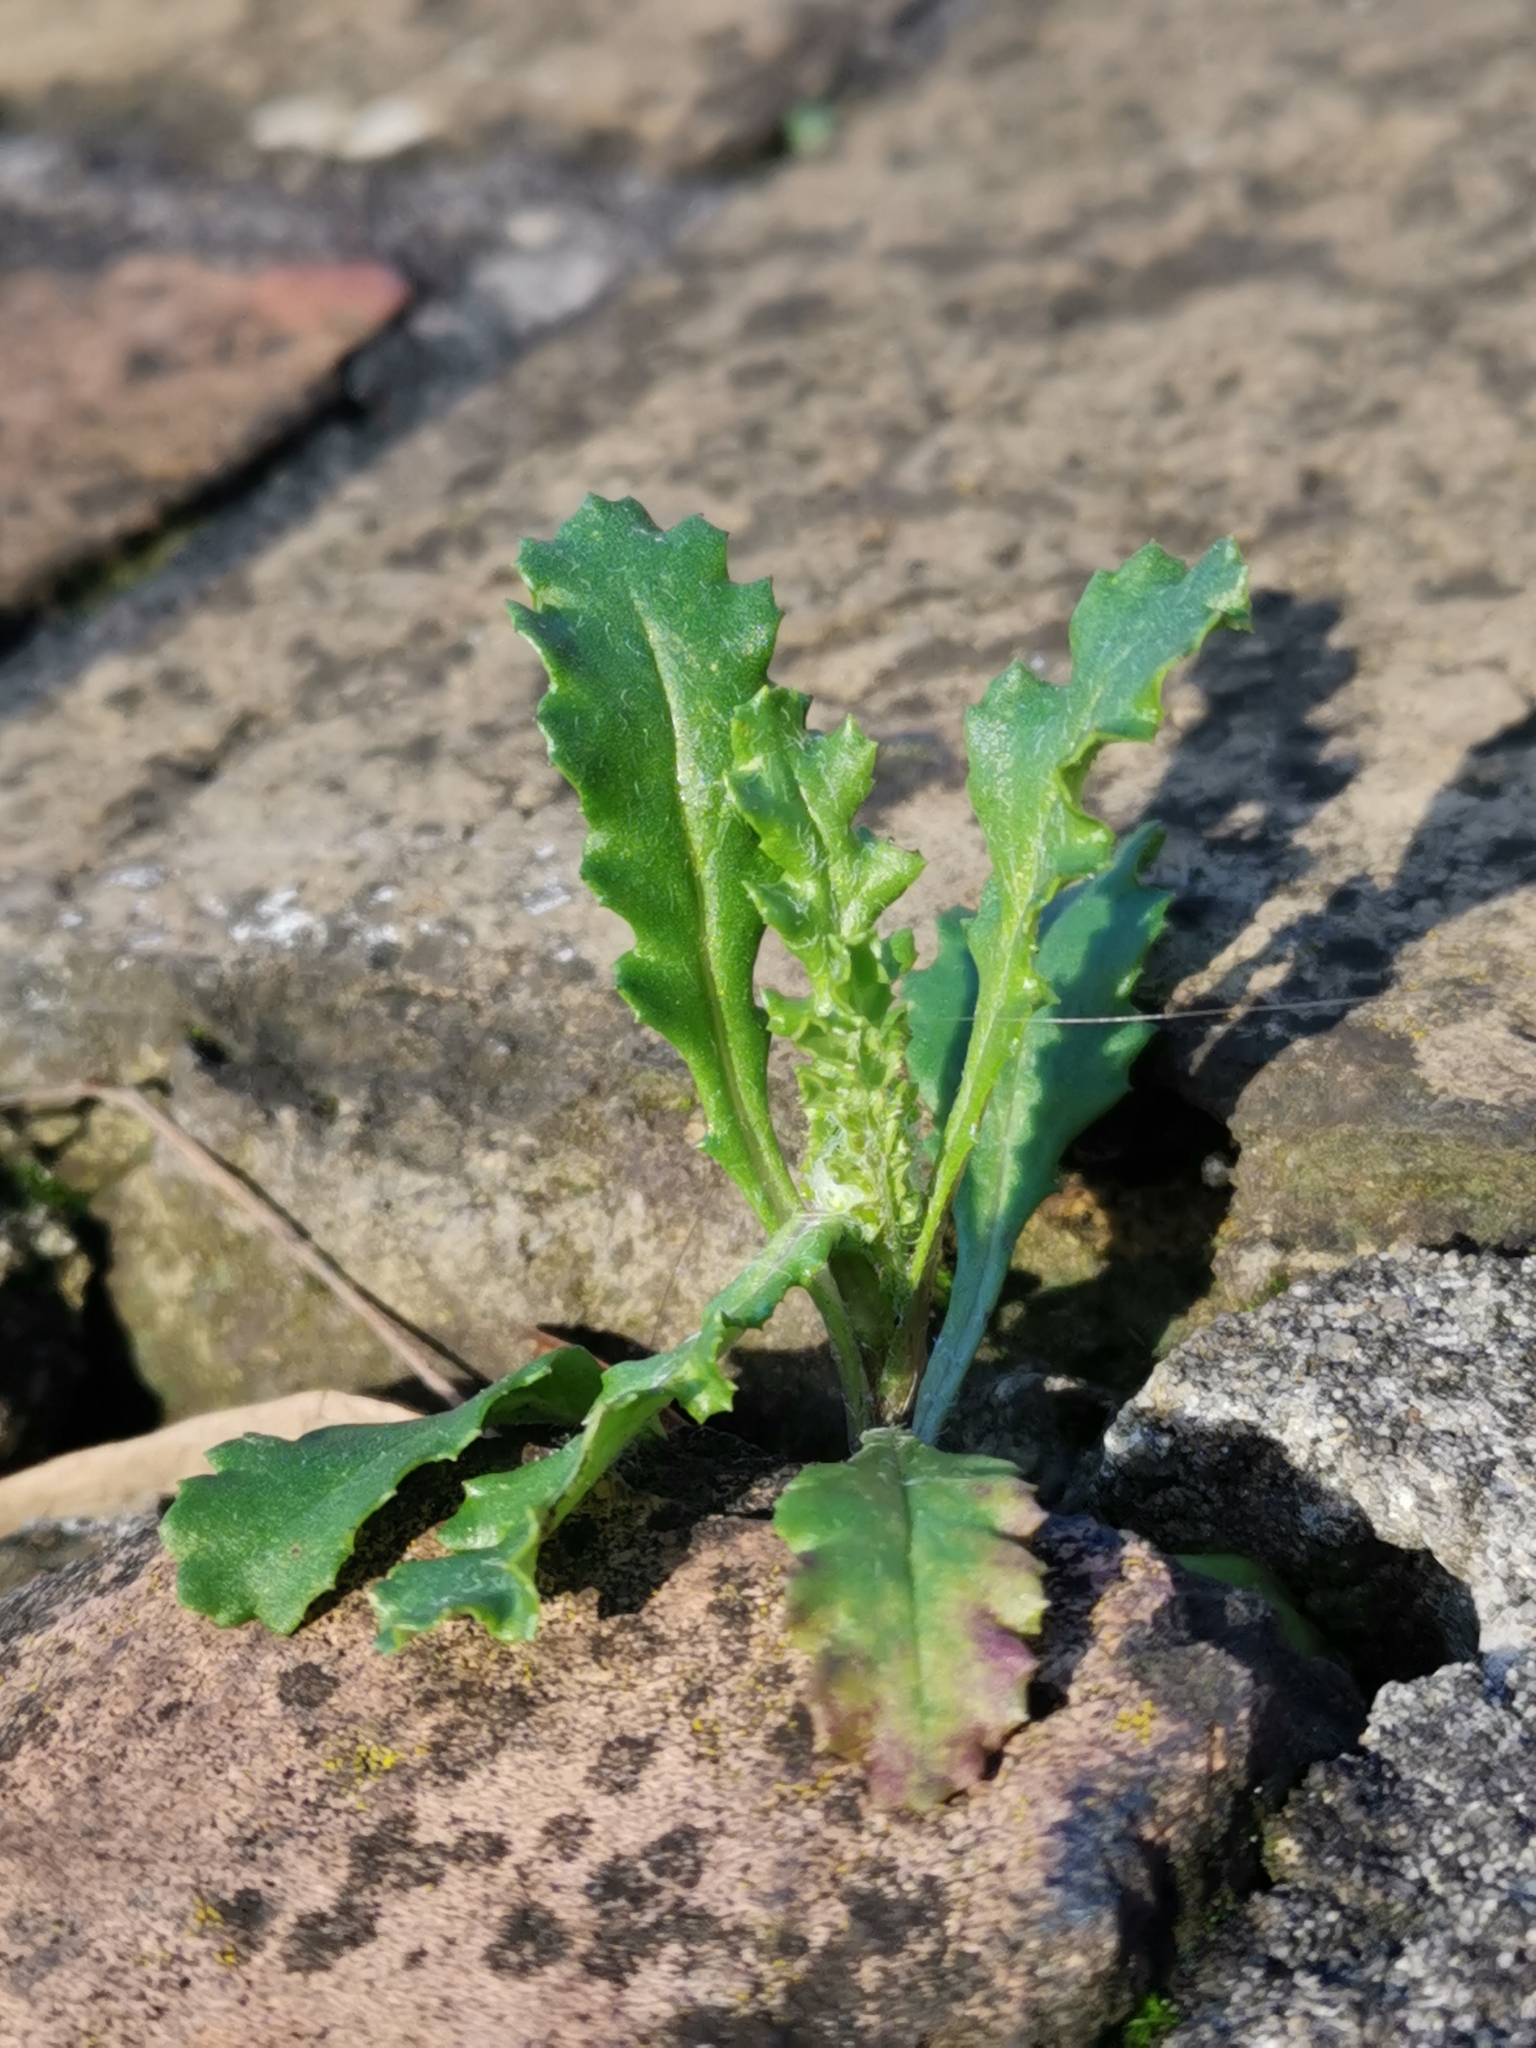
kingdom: Plantae
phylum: Tracheophyta
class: Magnoliopsida
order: Asterales
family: Asteraceae
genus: Senecio
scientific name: Senecio vulgaris
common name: Old-man-in-the-spring
